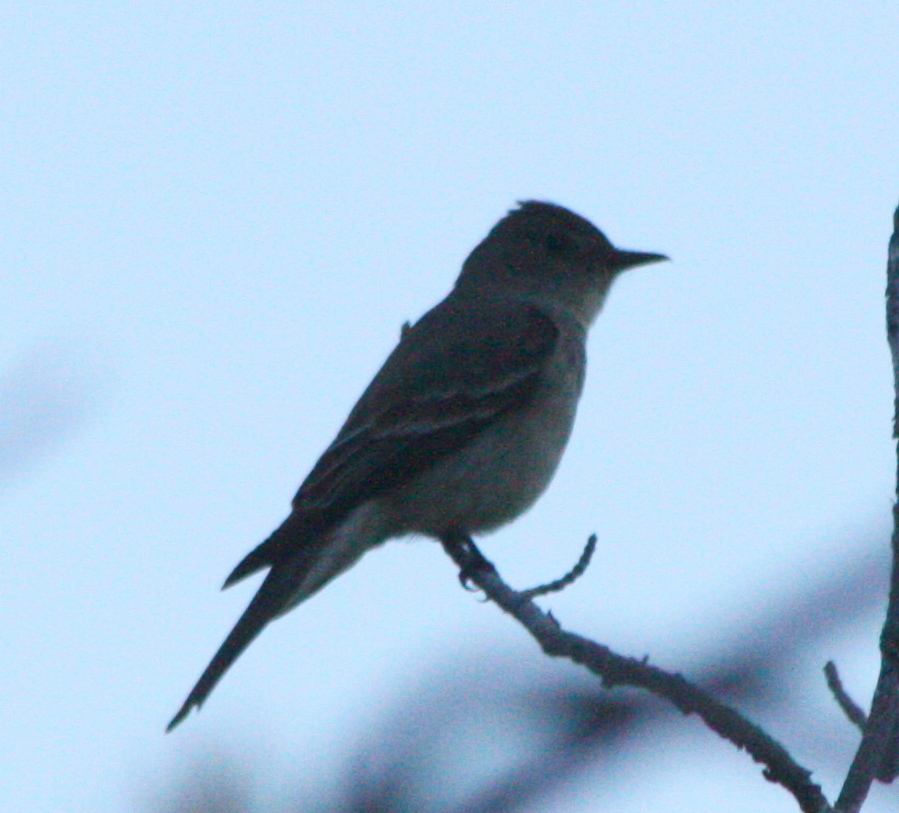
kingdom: Animalia
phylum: Chordata
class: Aves
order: Passeriformes
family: Tyrannidae
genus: Contopus
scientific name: Contopus sordidulus
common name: Western wood-pewee
